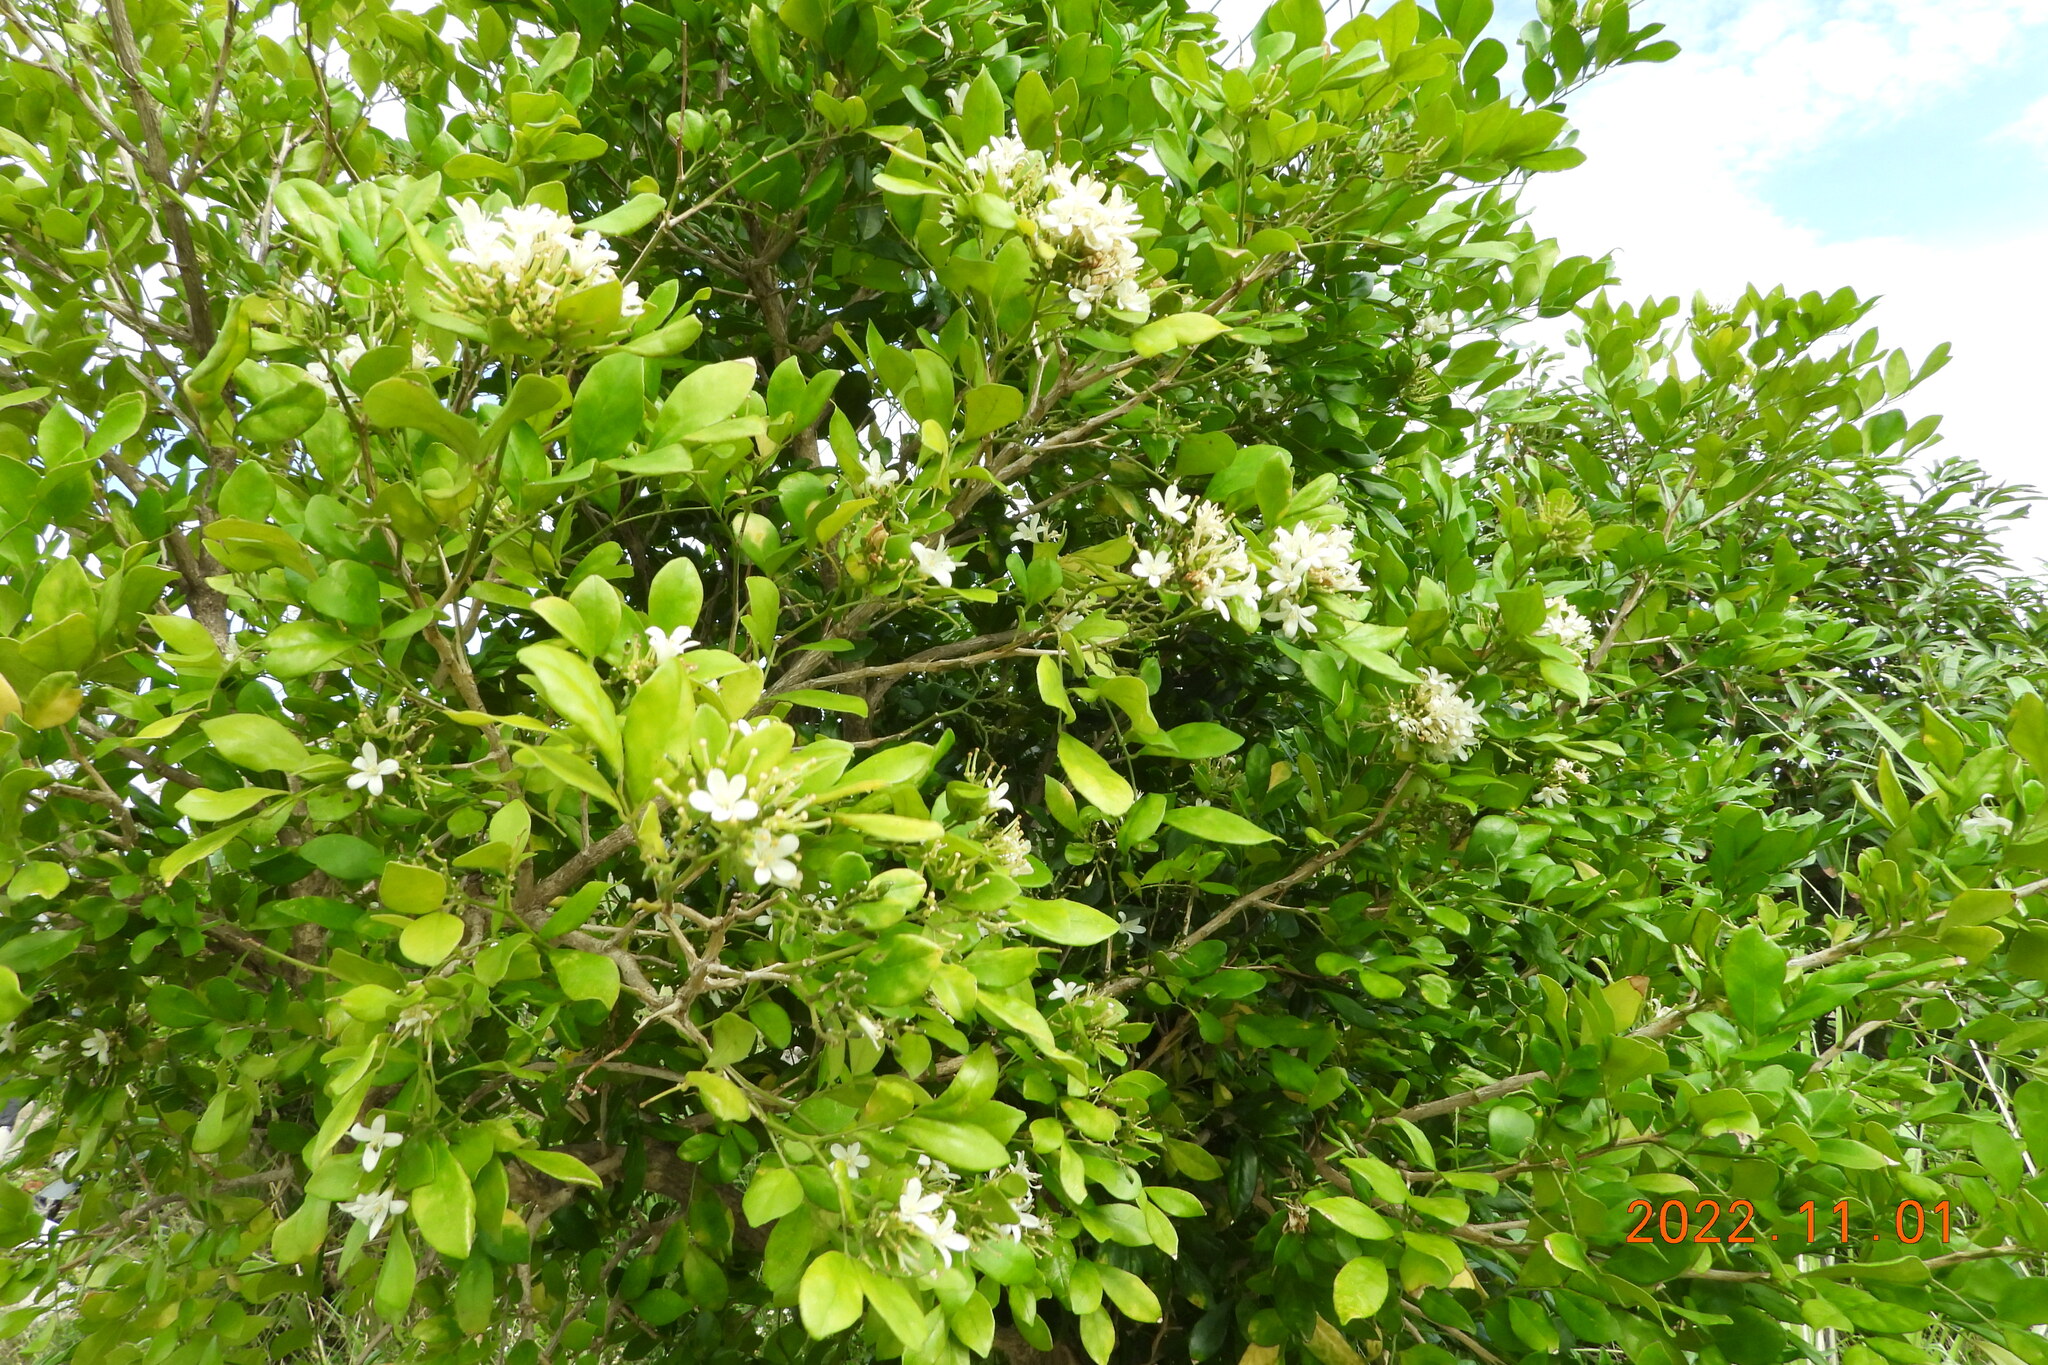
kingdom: Plantae
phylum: Tracheophyta
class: Magnoliopsida
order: Sapindales
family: Rutaceae
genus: Murraya
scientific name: Murraya paniculata
